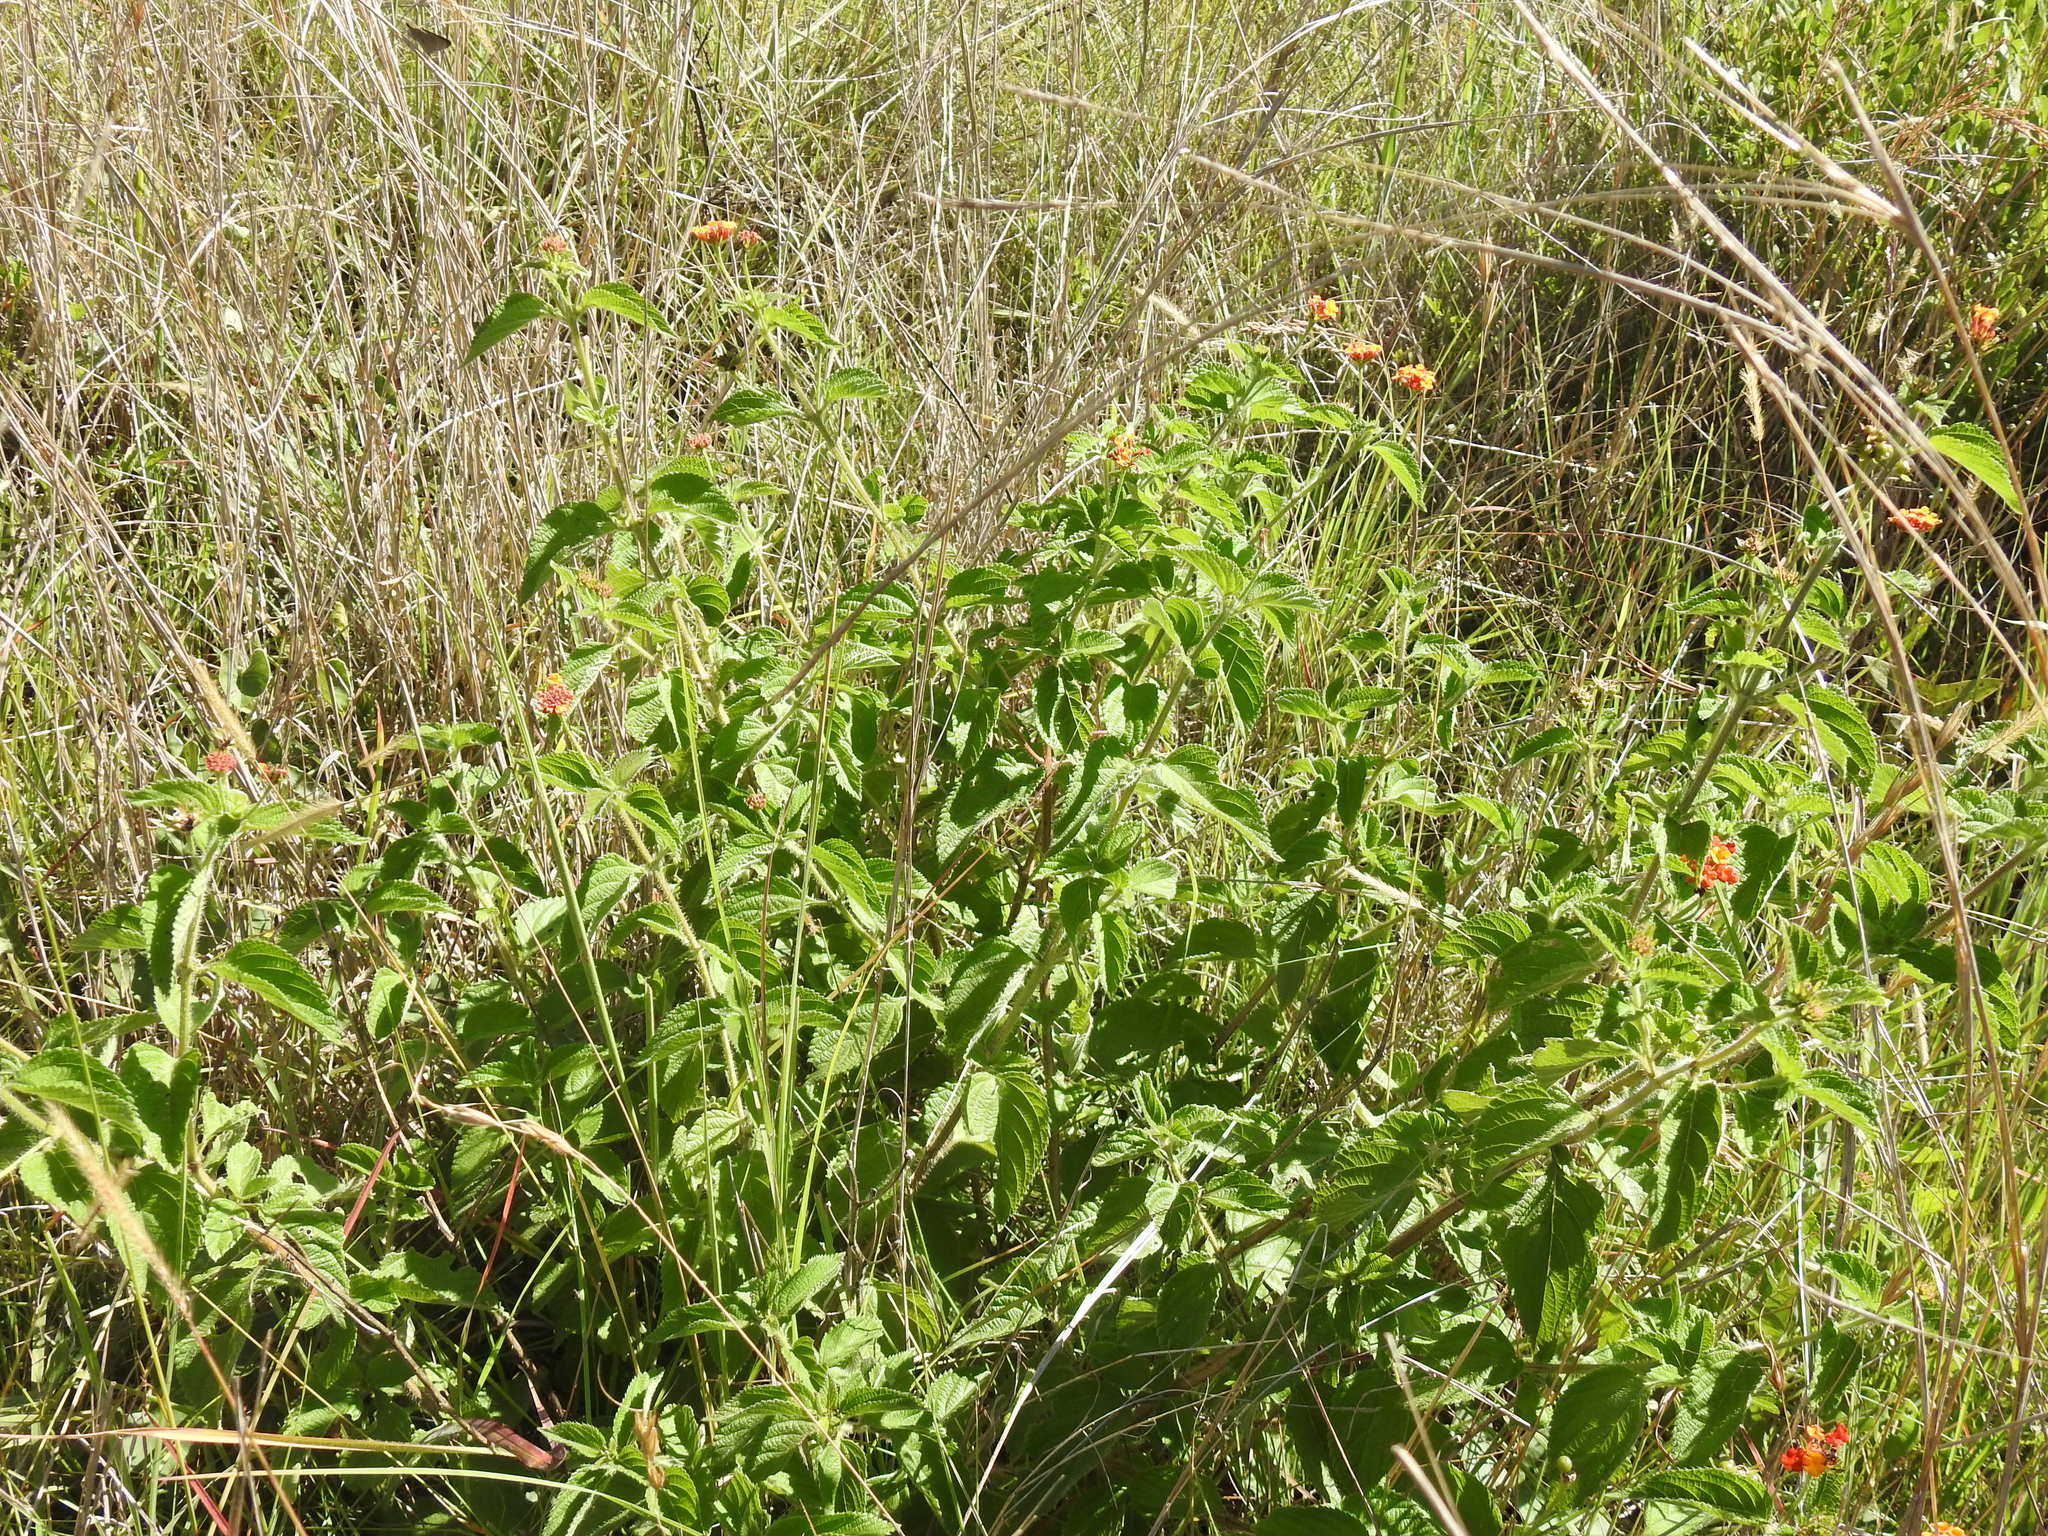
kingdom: Plantae
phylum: Tracheophyta
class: Magnoliopsida
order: Lamiales
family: Verbenaceae
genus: Lantana
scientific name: Lantana camara
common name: Lantana
